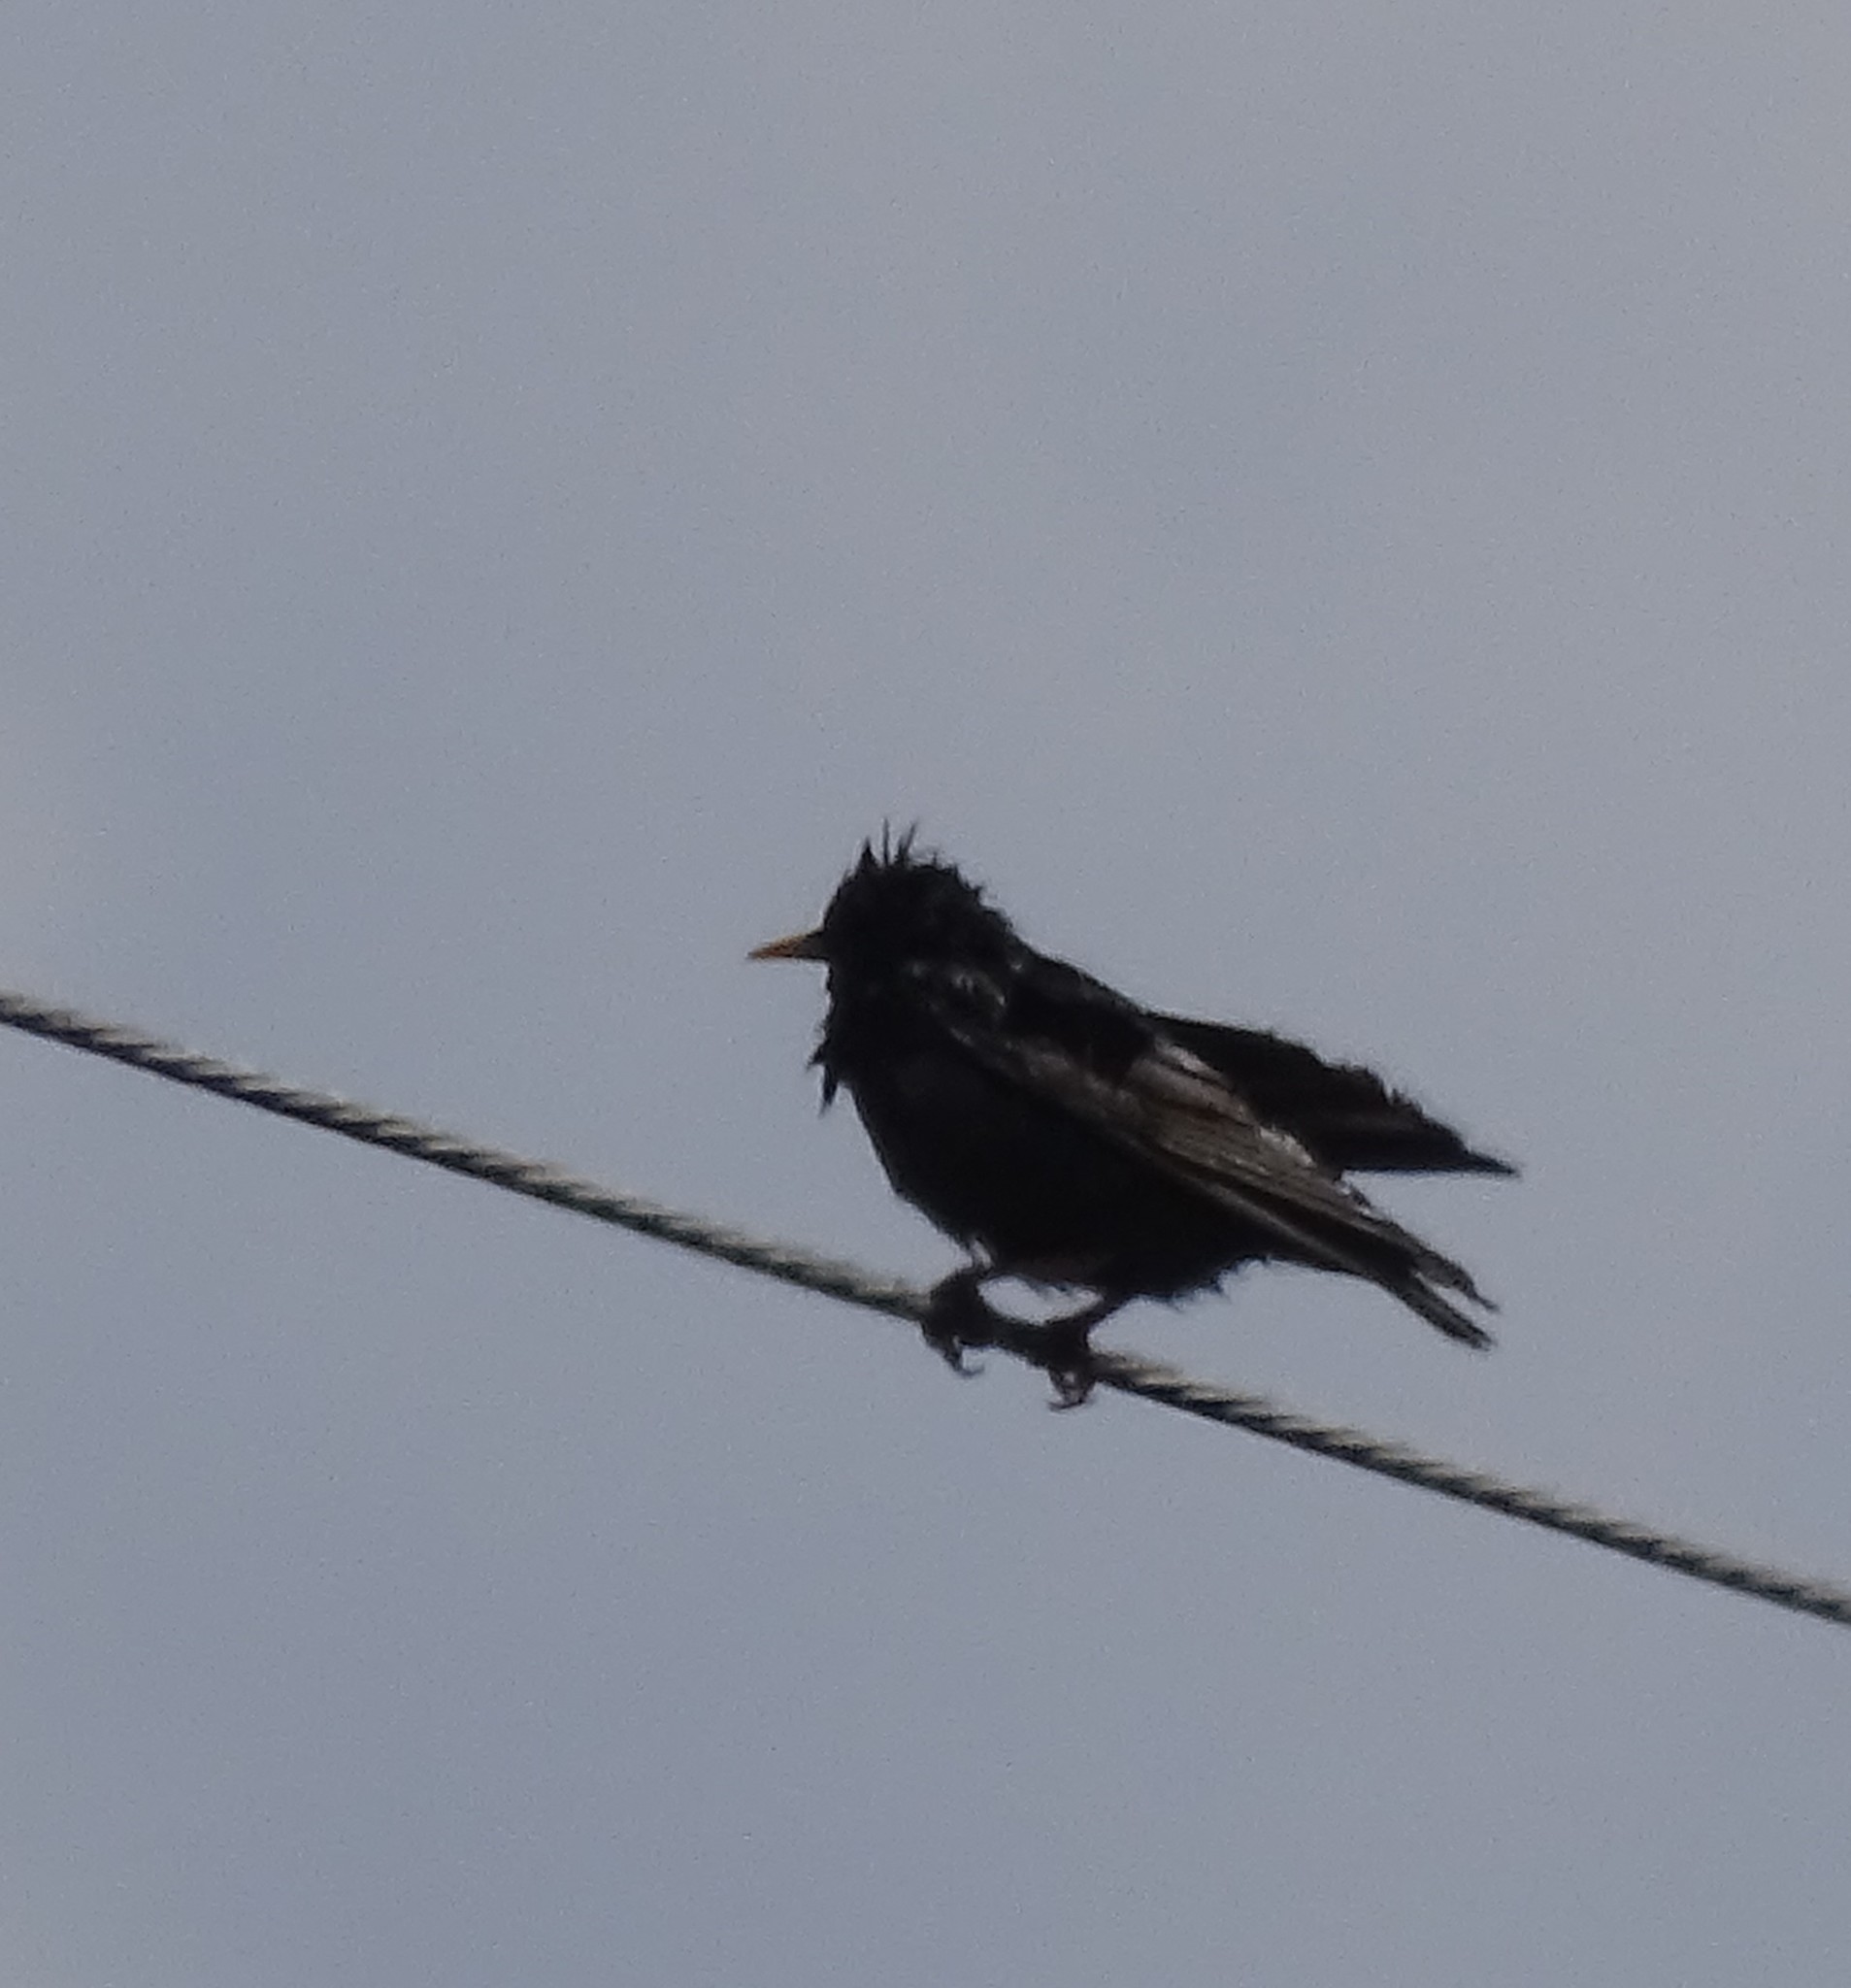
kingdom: Animalia
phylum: Chordata
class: Aves
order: Passeriformes
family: Sturnidae
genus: Sturnus
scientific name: Sturnus vulgaris
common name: Common starling
